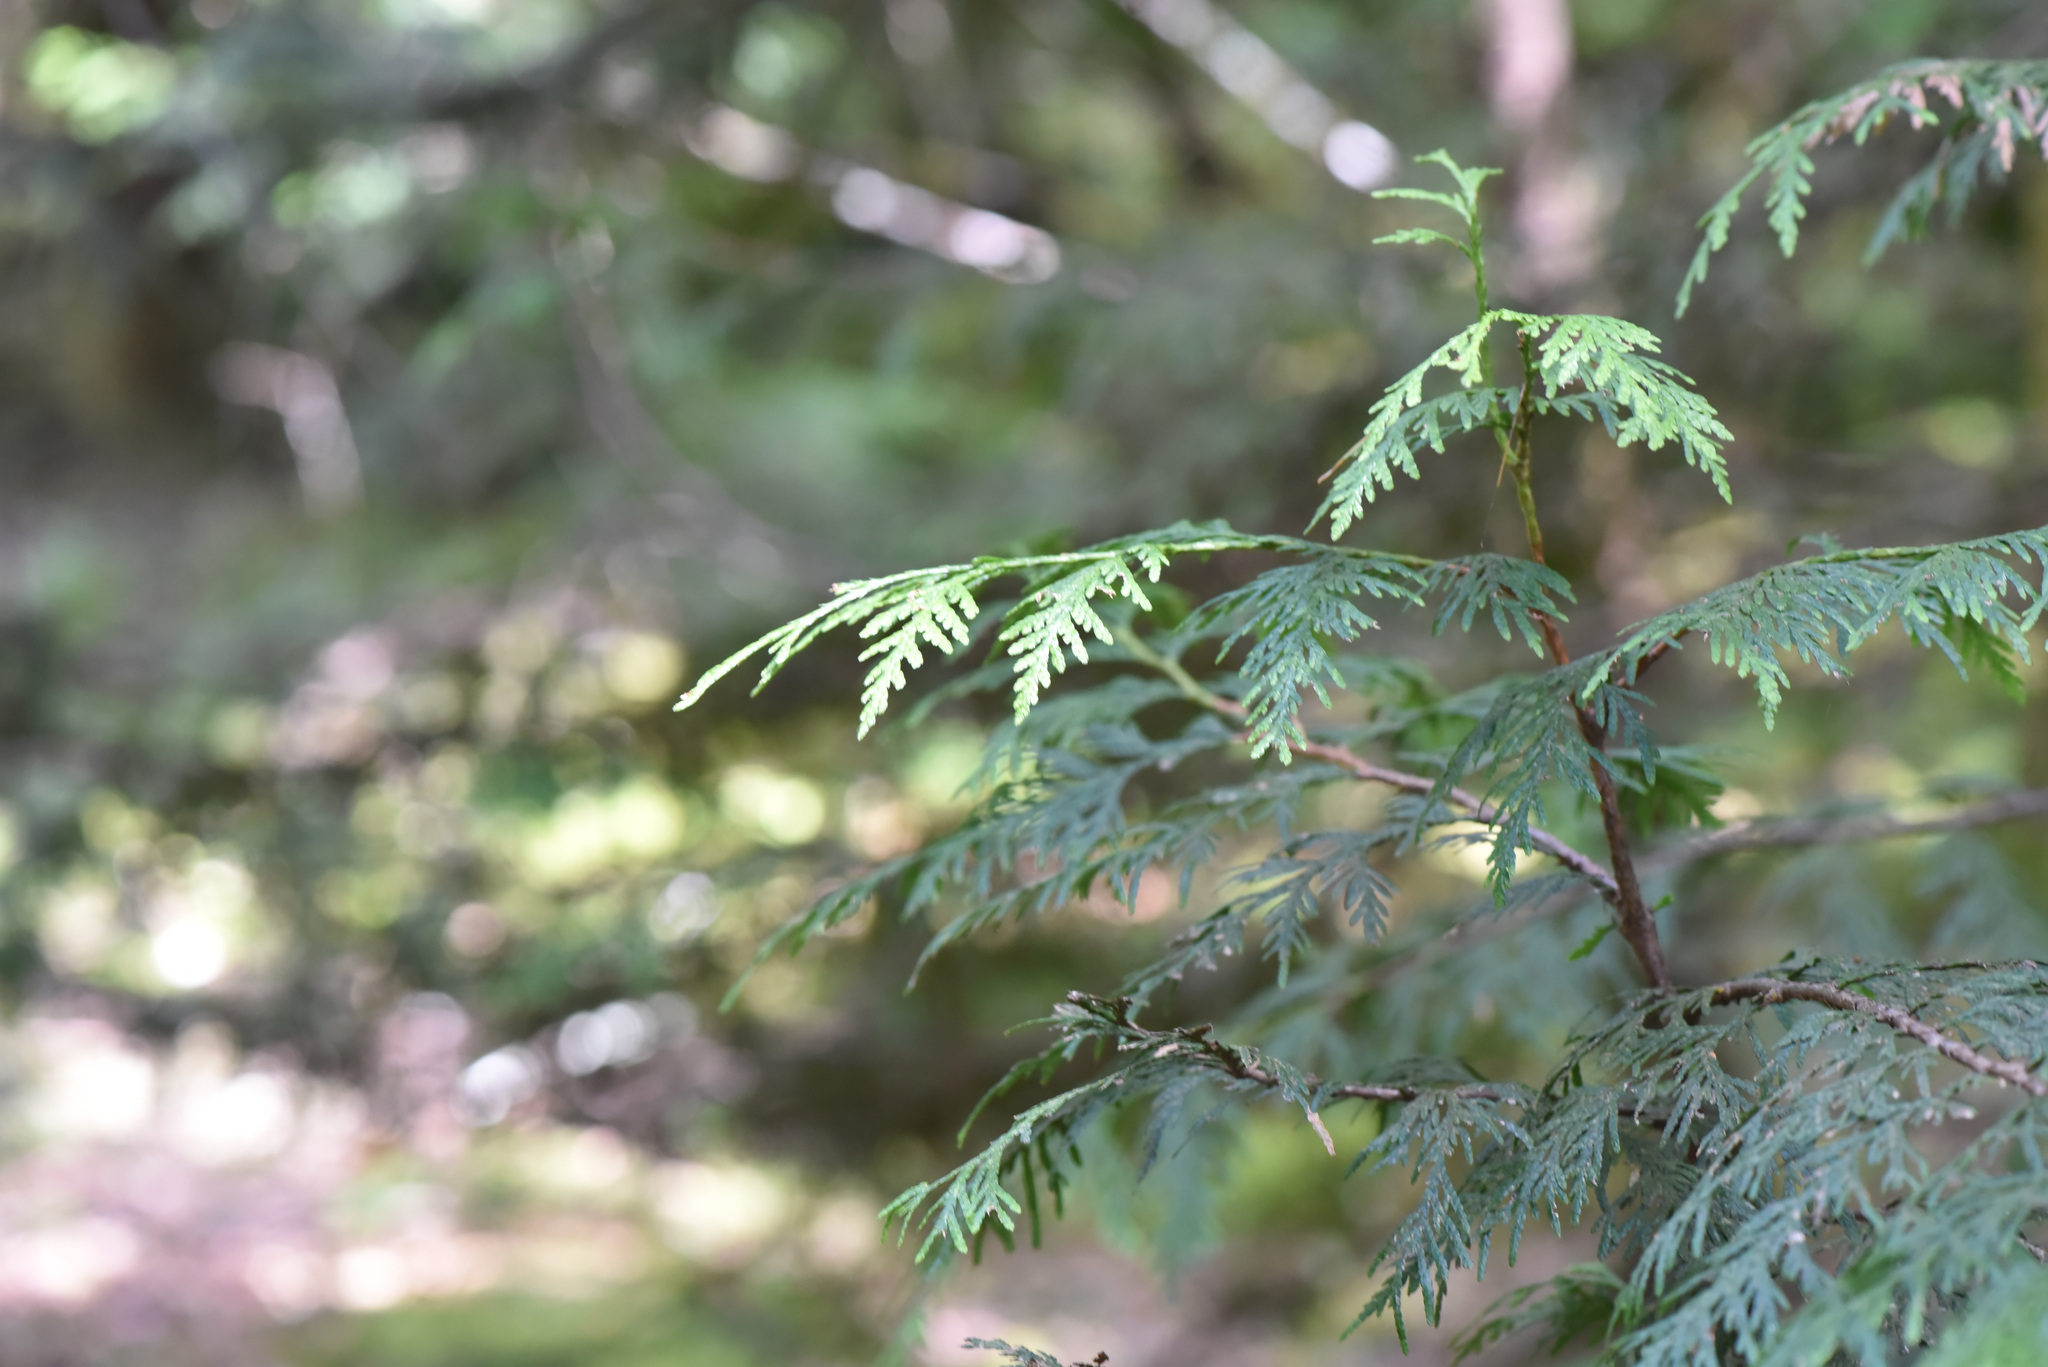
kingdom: Plantae
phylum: Tracheophyta
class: Pinopsida
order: Pinales
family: Cupressaceae
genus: Thuja
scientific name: Thuja plicata
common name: Western red-cedar
